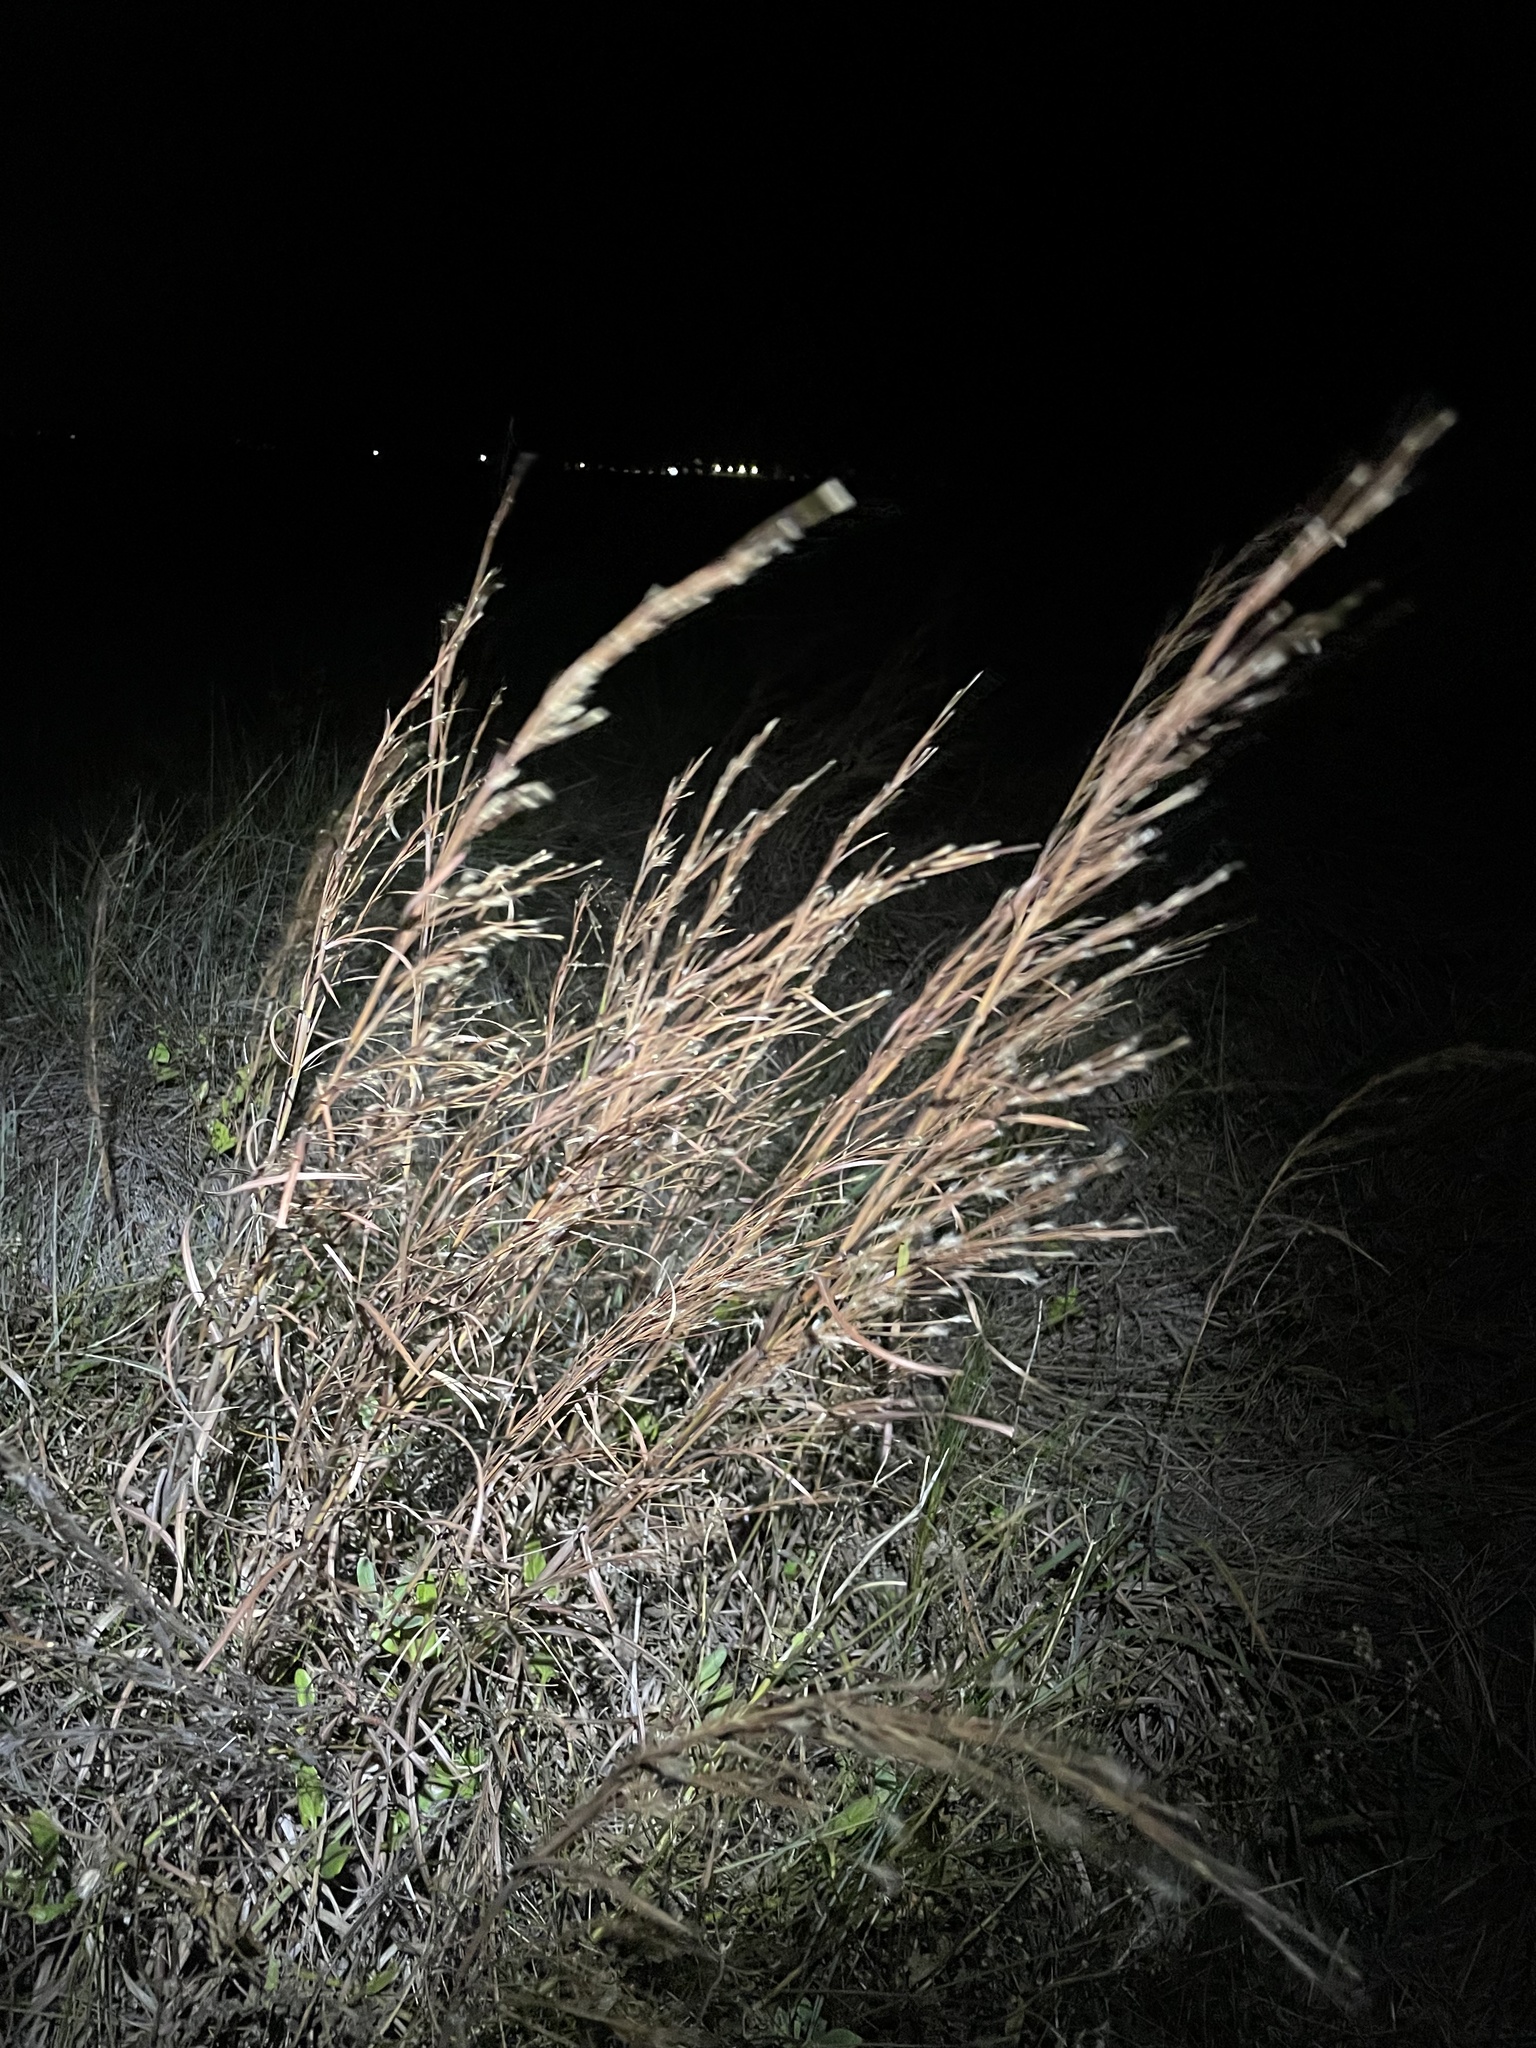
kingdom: Plantae
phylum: Tracheophyta
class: Liliopsida
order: Poales
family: Poaceae
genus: Schizachyrium
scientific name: Schizachyrium scoparium
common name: Little bluestem
